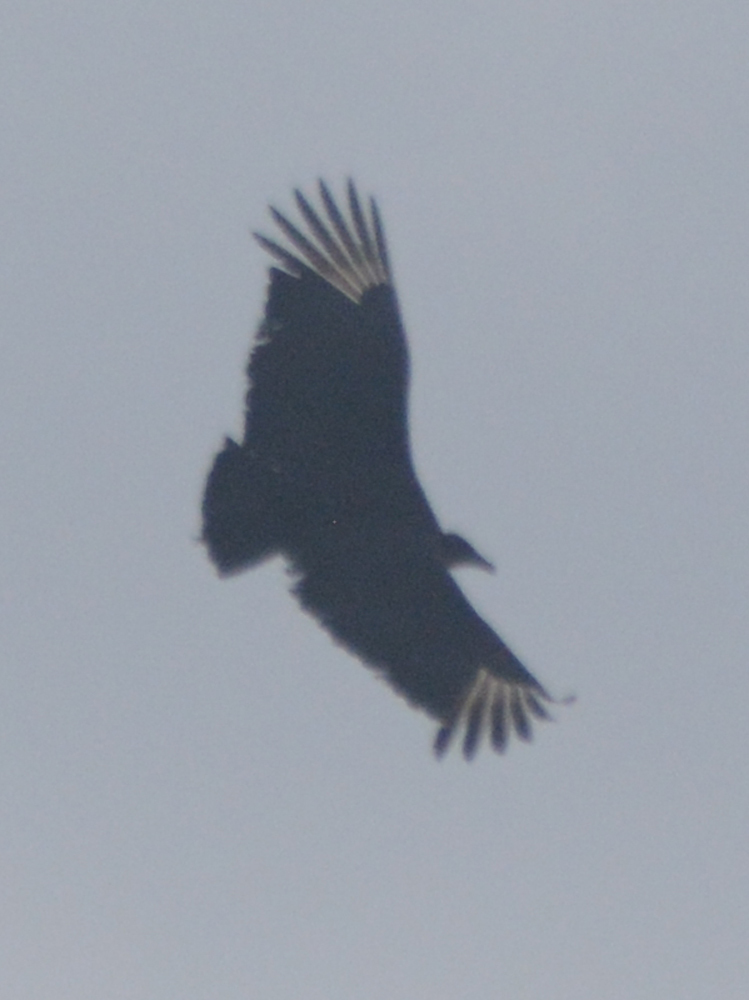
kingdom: Animalia
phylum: Chordata
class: Aves
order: Accipitriformes
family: Cathartidae
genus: Coragyps
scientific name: Coragyps atratus
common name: Black vulture
